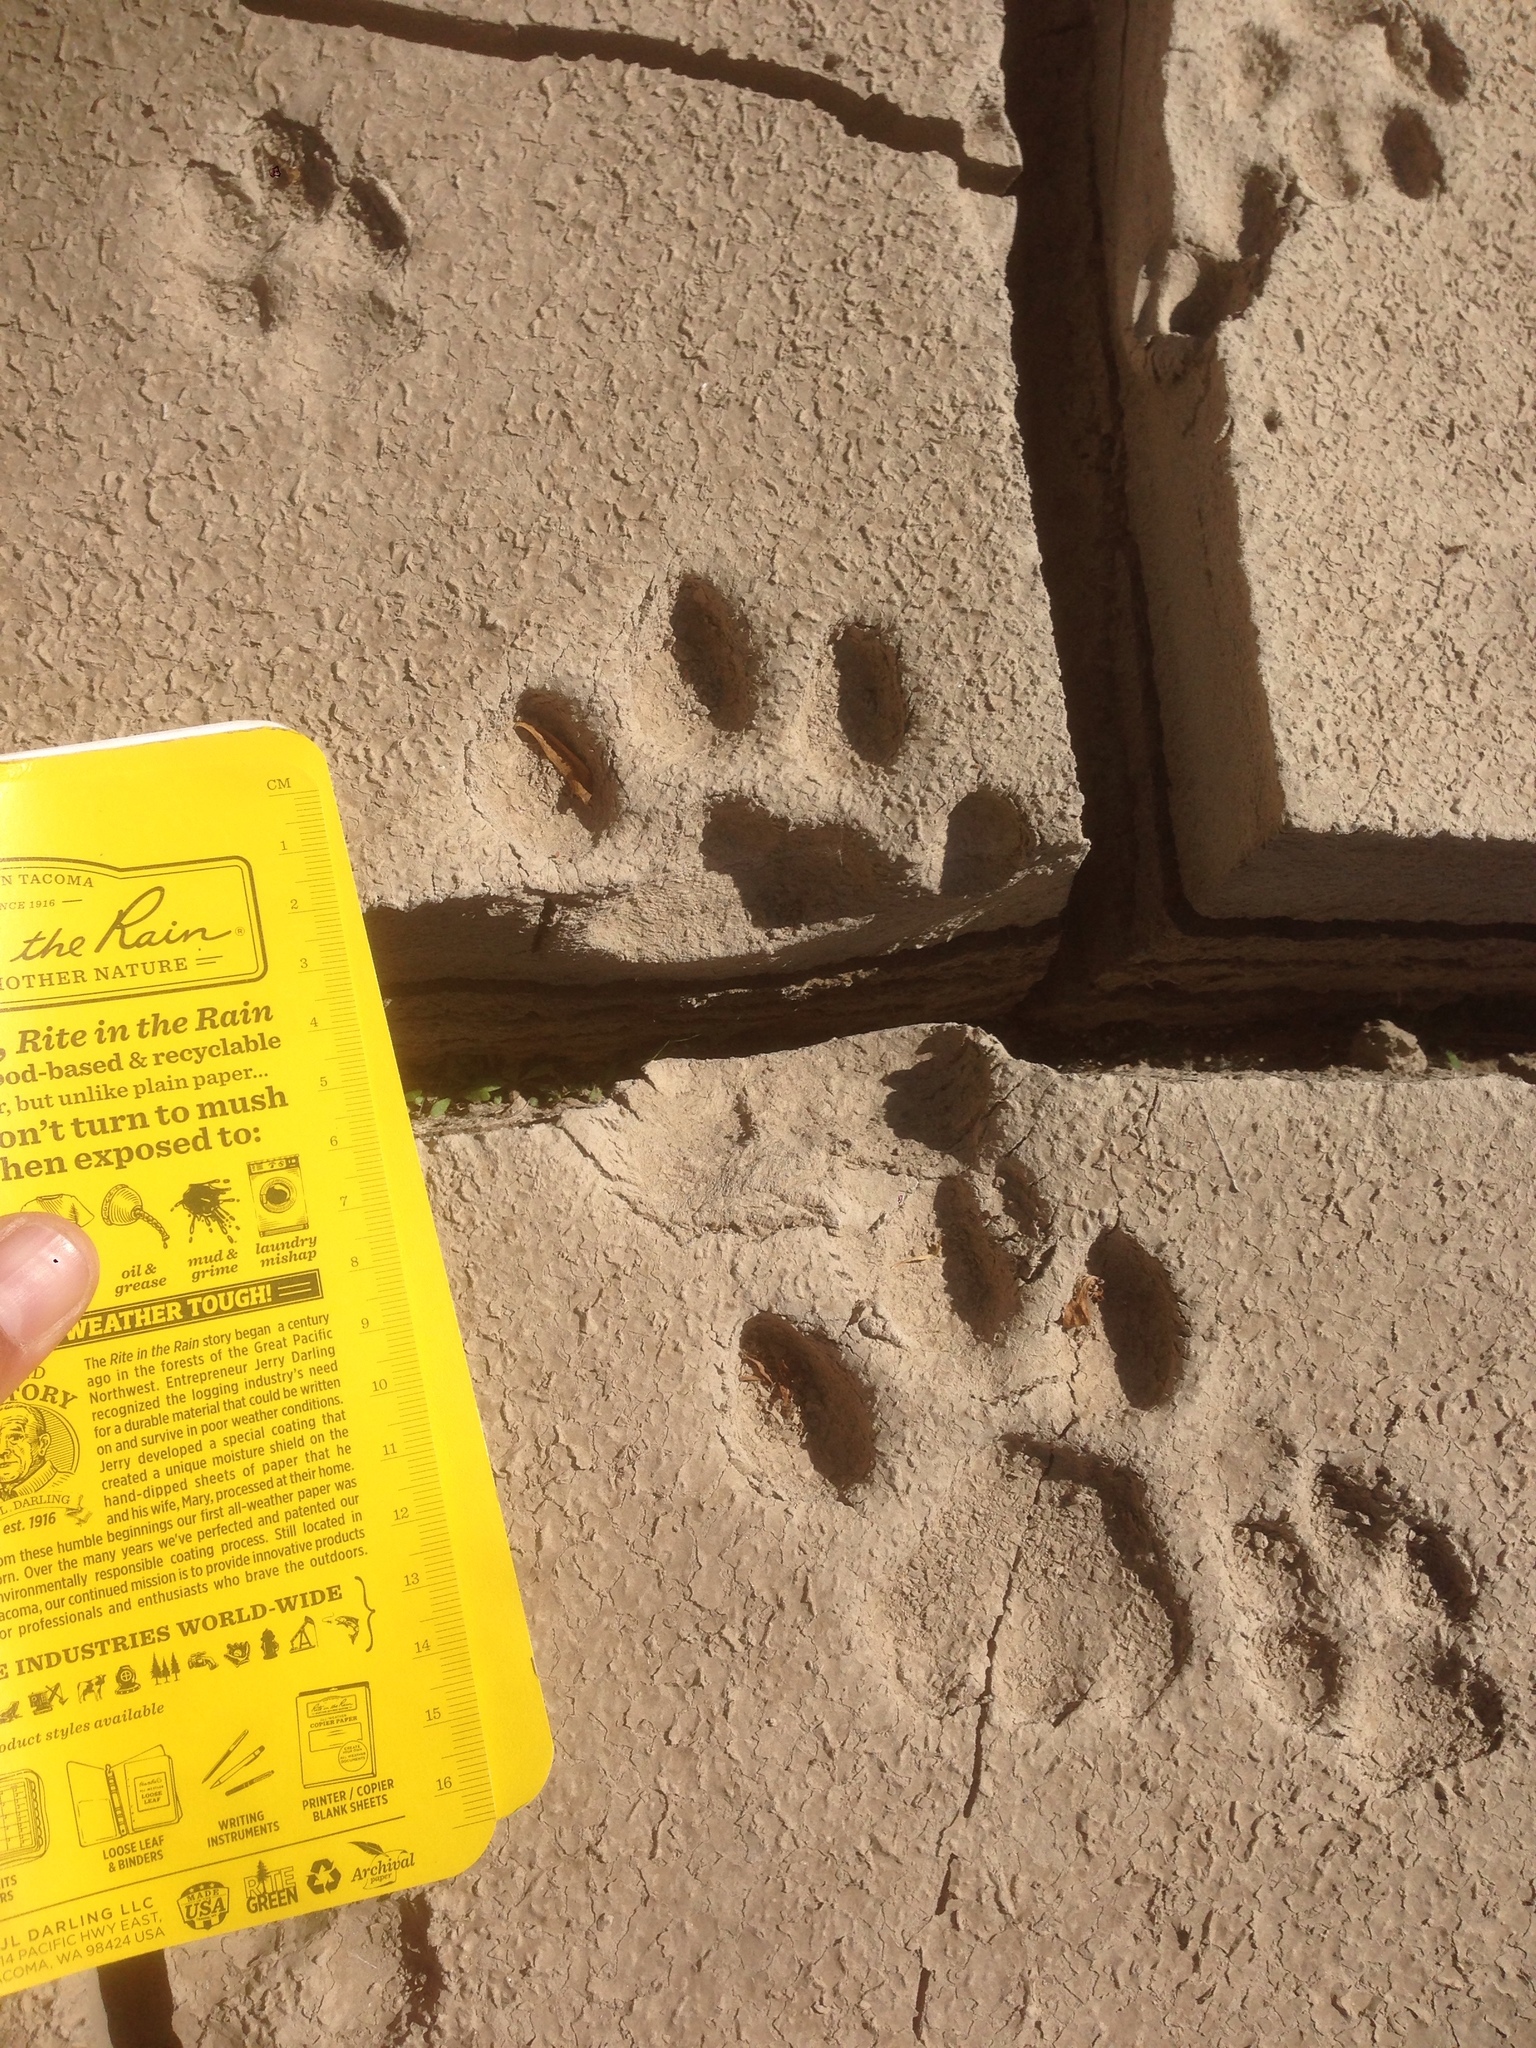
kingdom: Animalia
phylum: Chordata
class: Mammalia
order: Carnivora
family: Felidae
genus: Puma
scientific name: Puma concolor
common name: Puma
